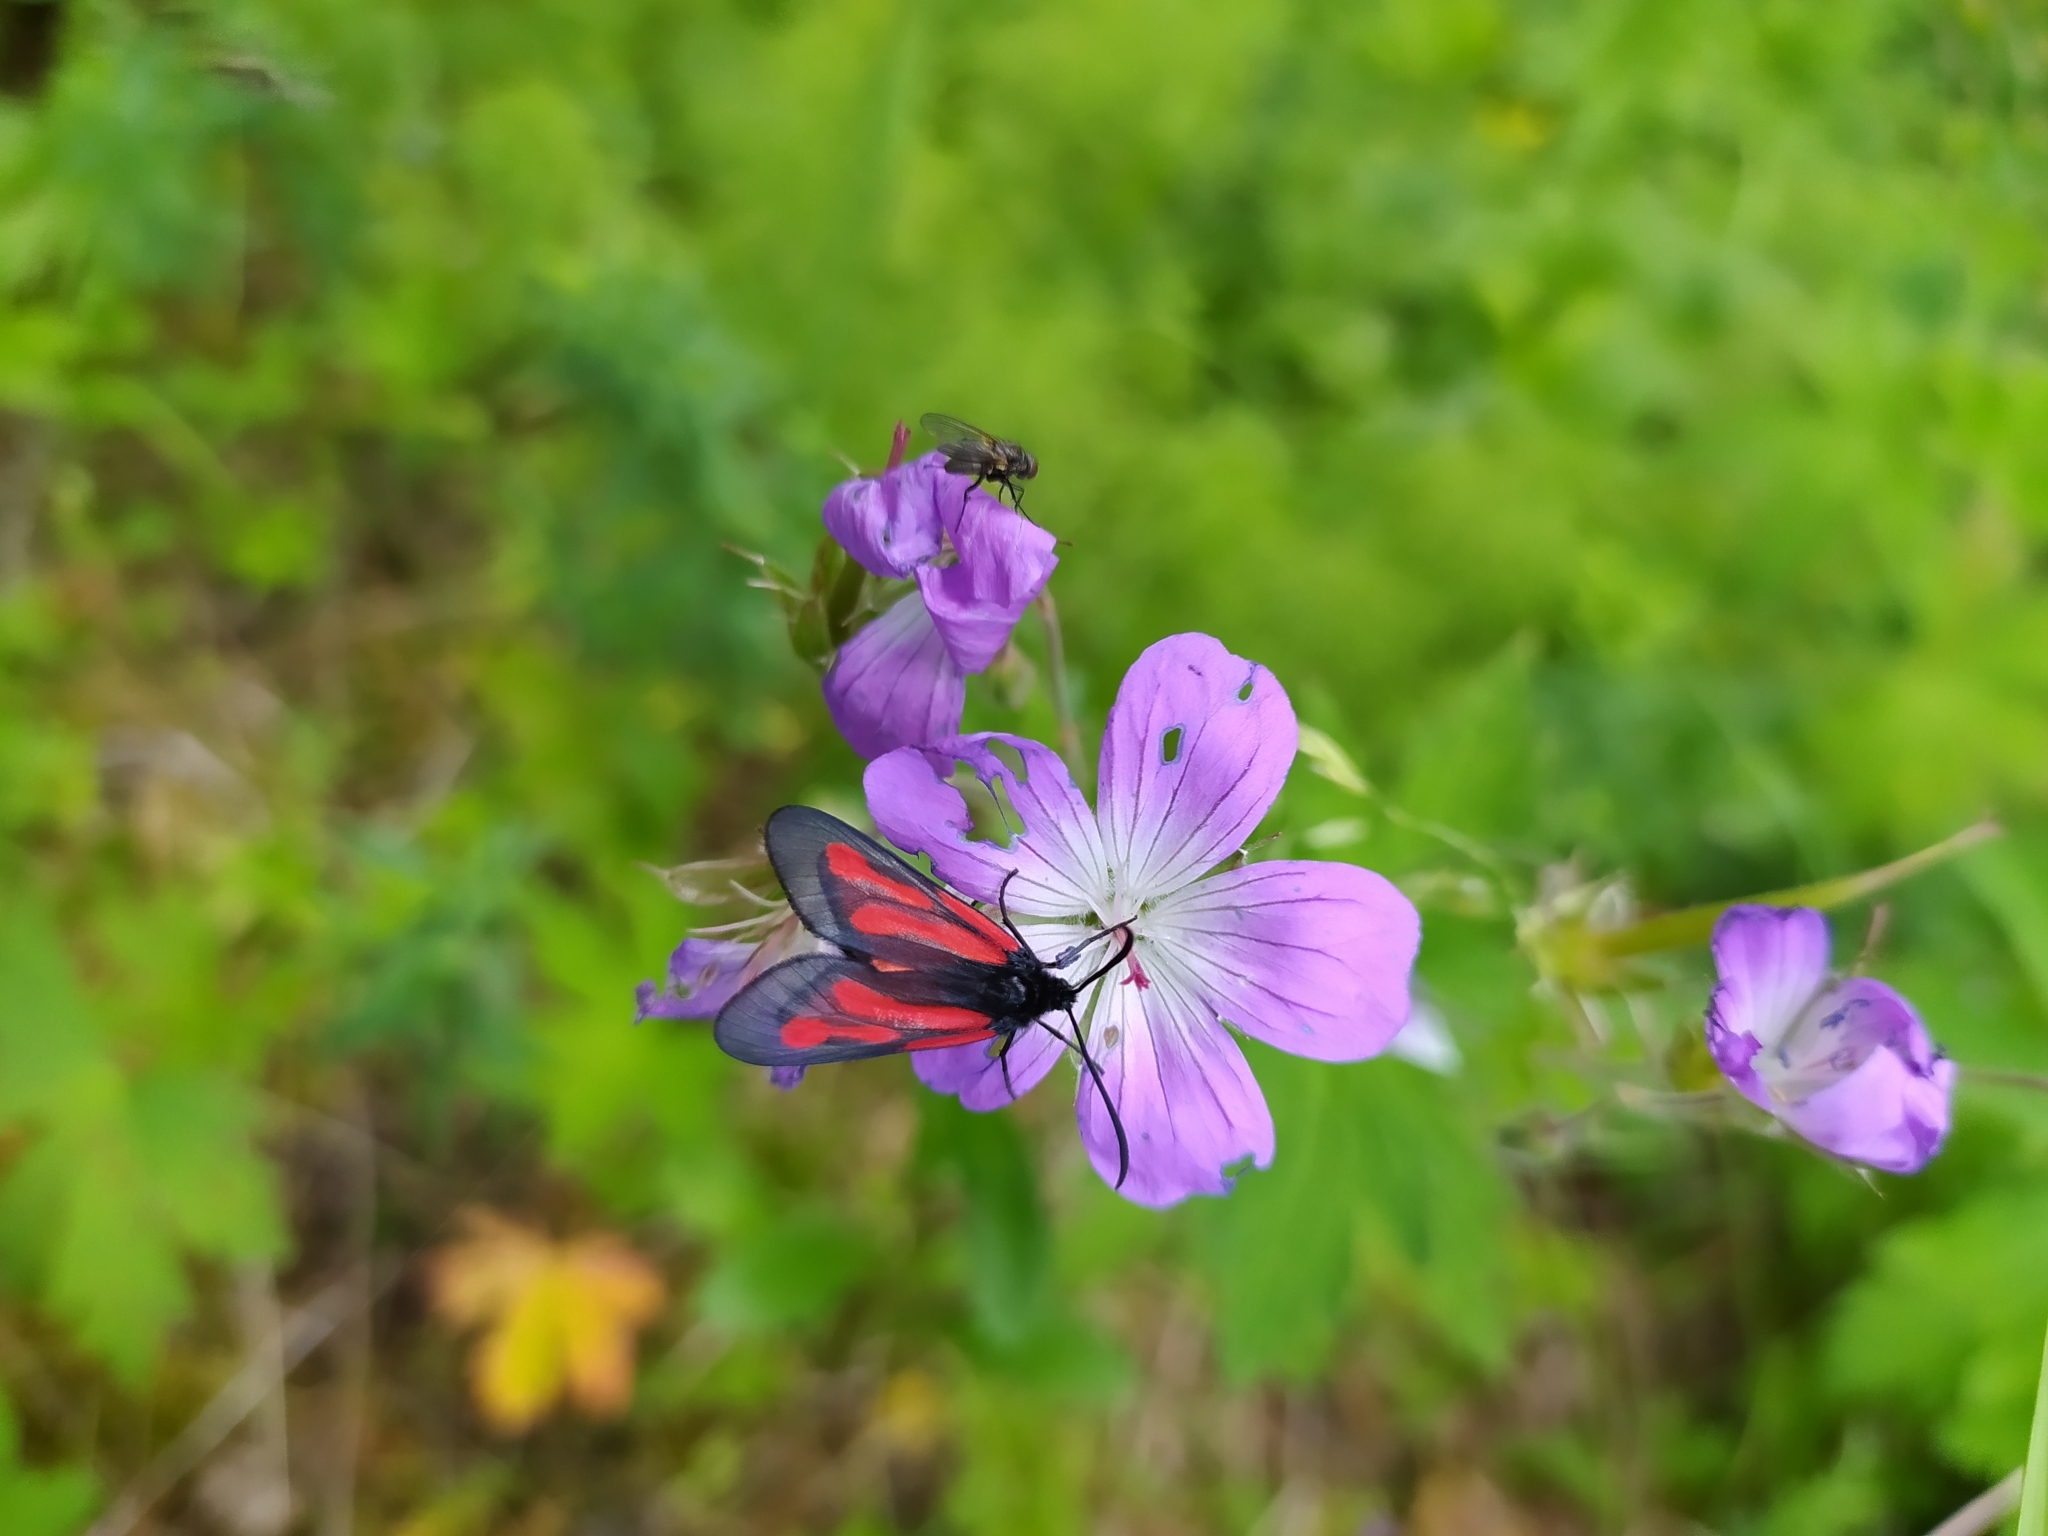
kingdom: Animalia
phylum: Arthropoda
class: Insecta
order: Lepidoptera
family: Zygaenidae
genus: Zygaena
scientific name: Zygaena osterodensis
